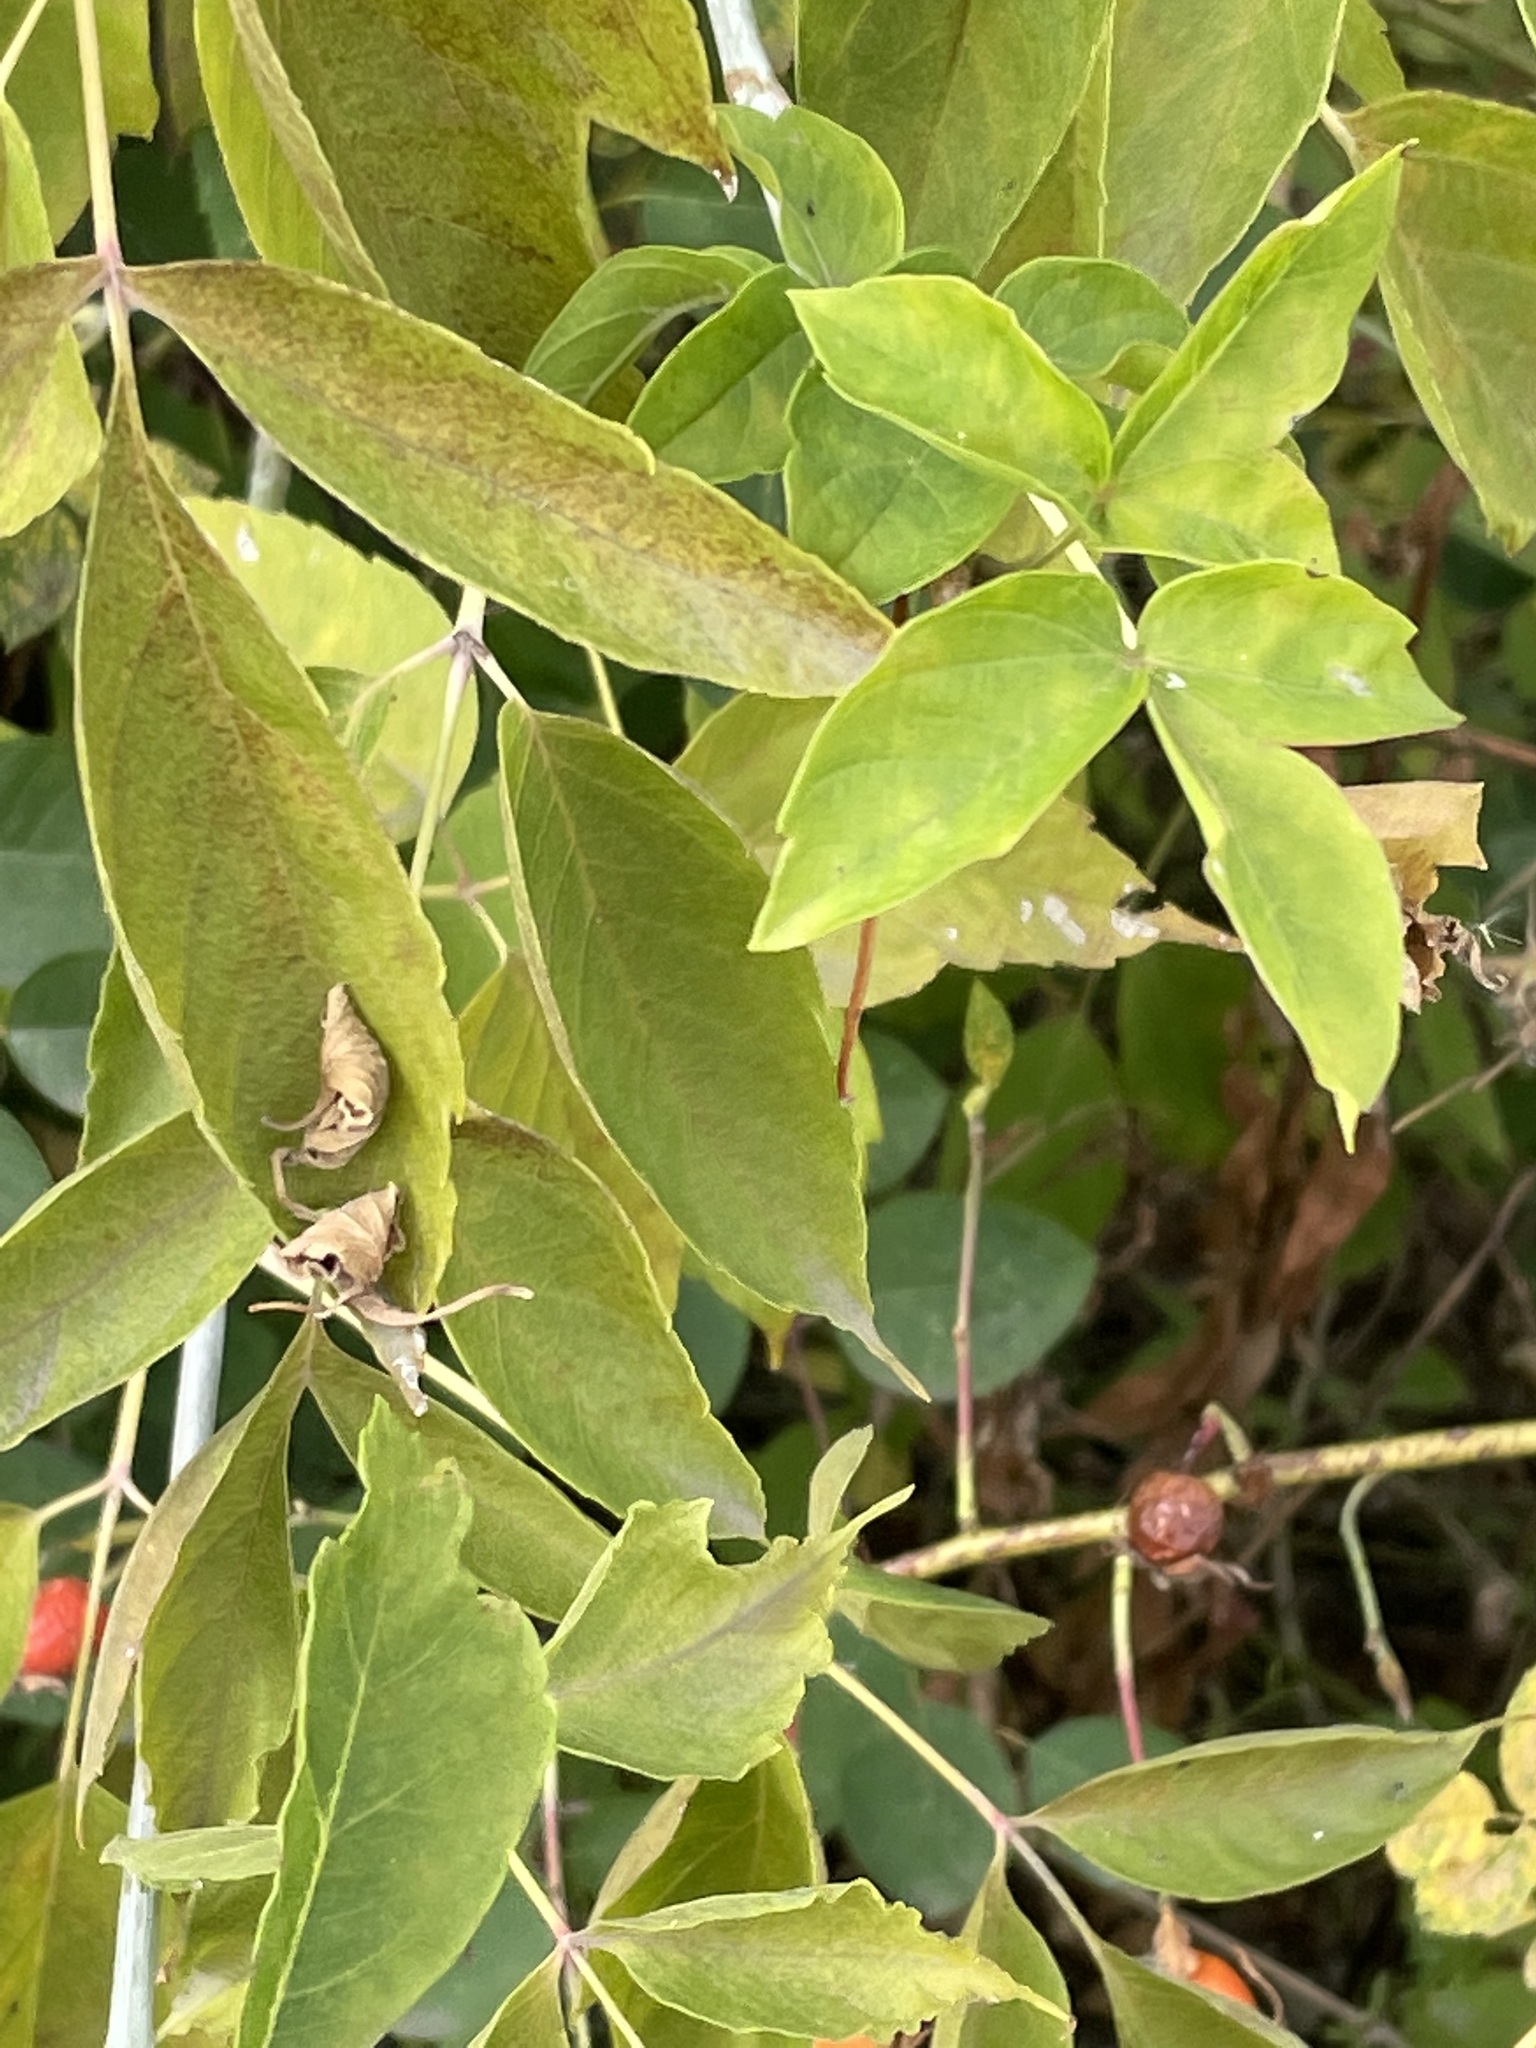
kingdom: Plantae
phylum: Tracheophyta
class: Magnoliopsida
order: Sapindales
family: Sapindaceae
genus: Acer
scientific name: Acer negundo
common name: Ashleaf maple
